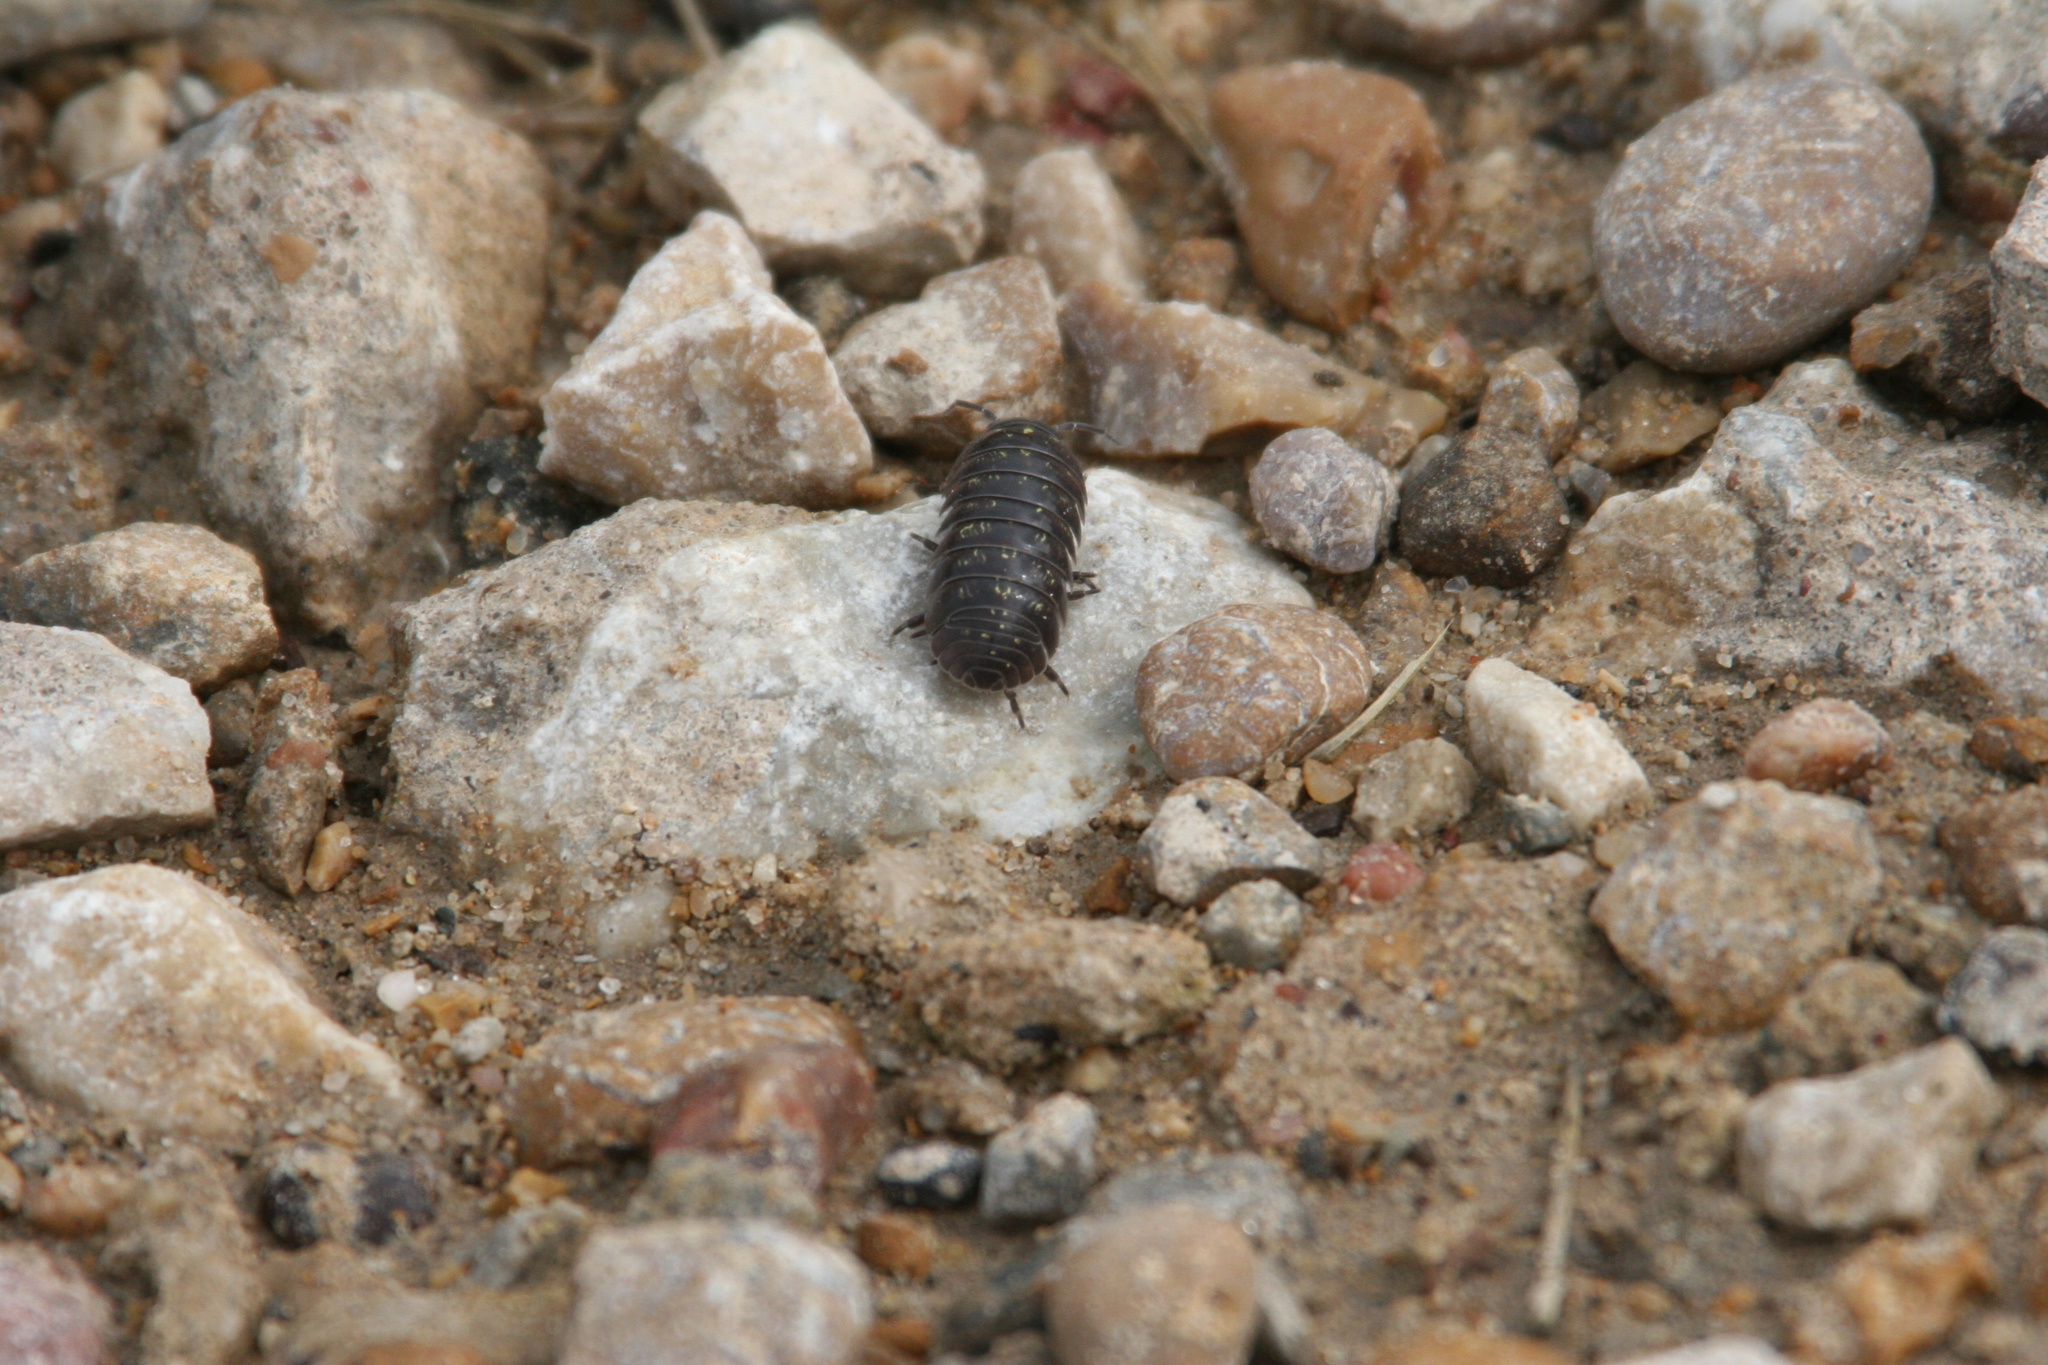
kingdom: Animalia
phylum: Arthropoda
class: Malacostraca
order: Isopoda
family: Armadillidiidae
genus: Armadillidium
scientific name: Armadillidium vulgare
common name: Common pill woodlouse
